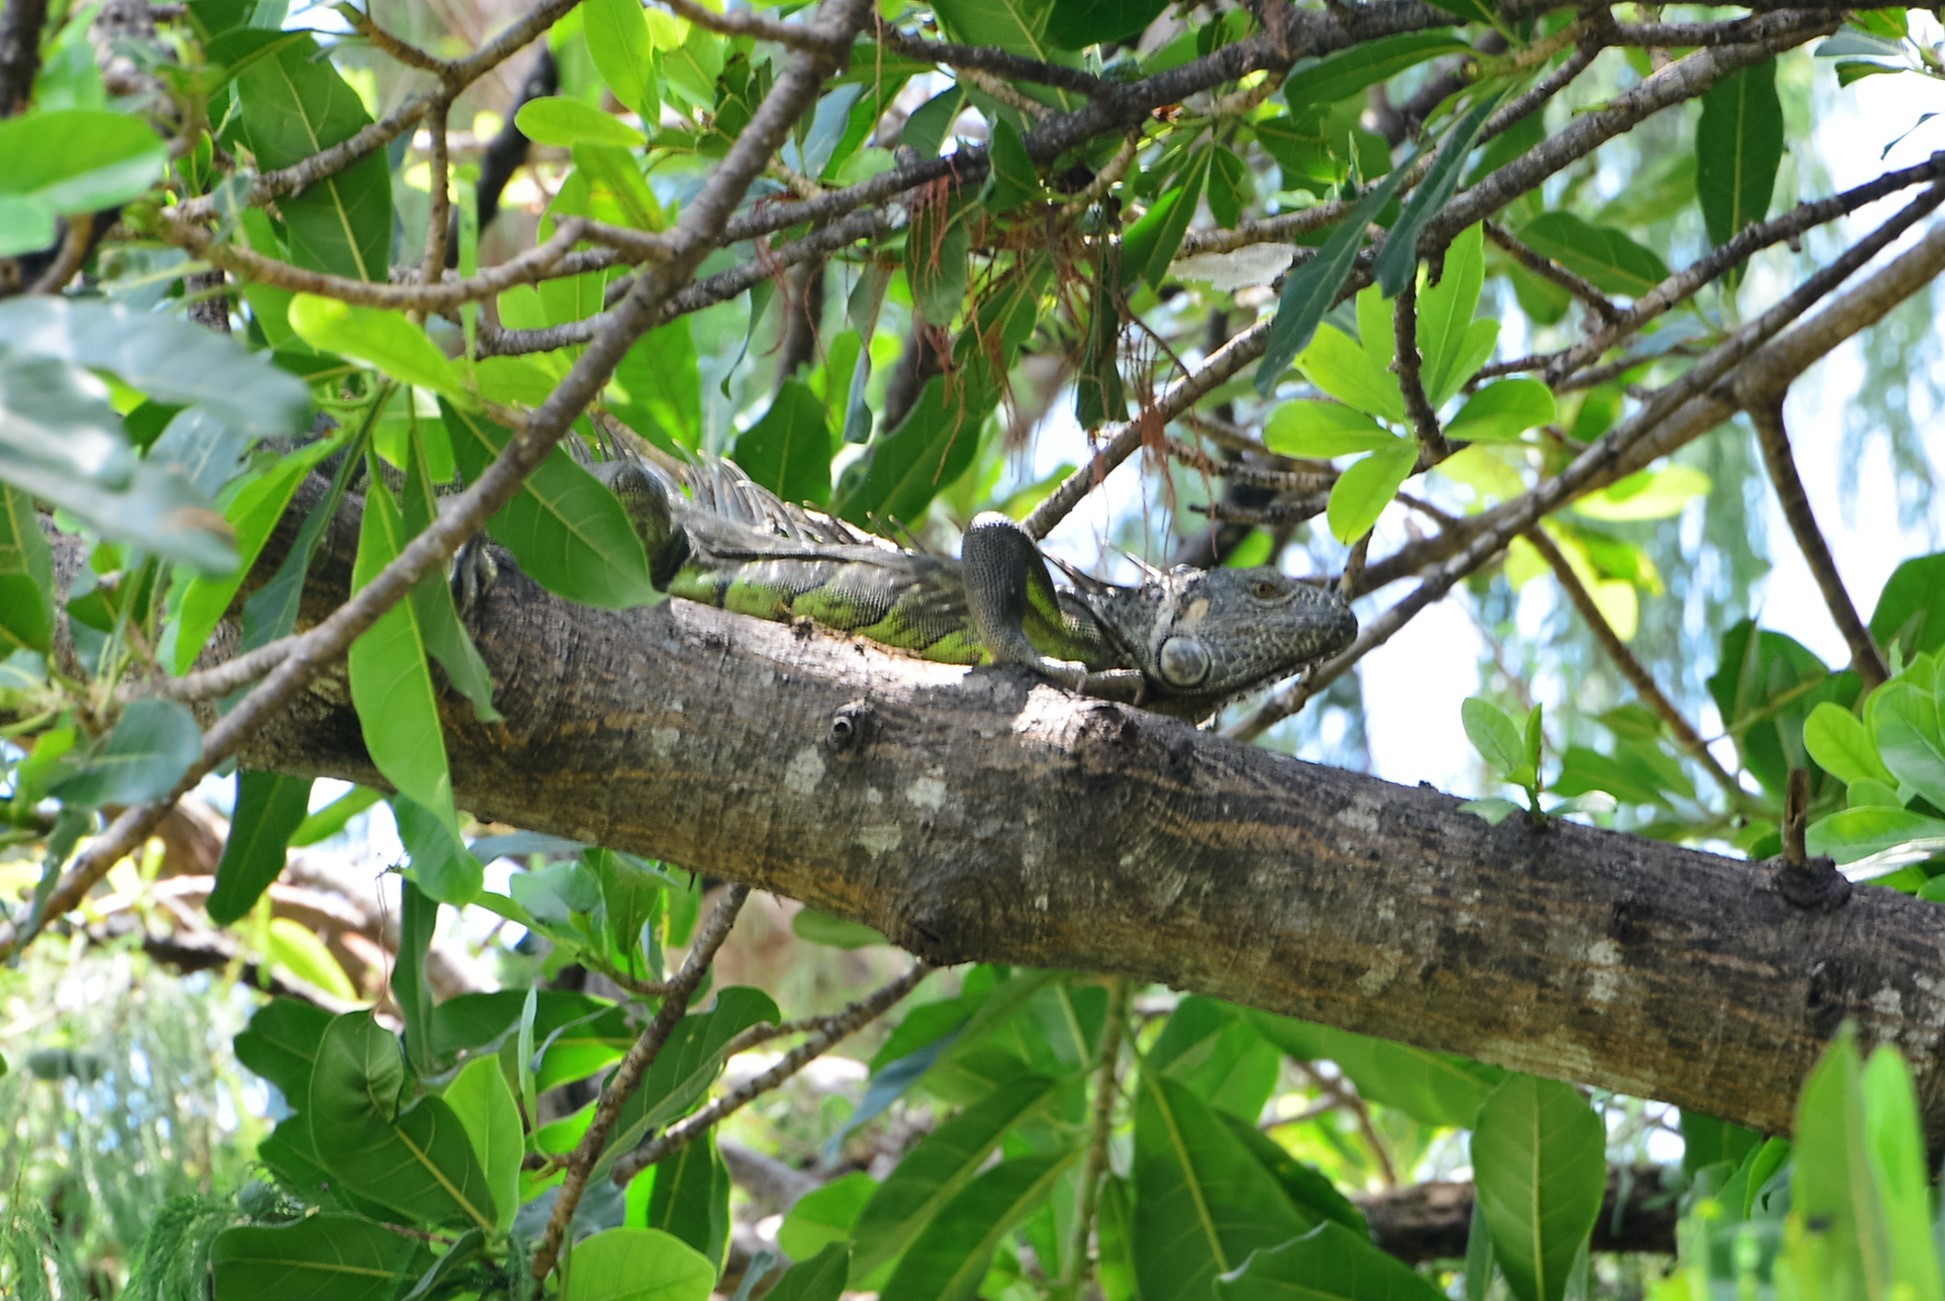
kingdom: Animalia
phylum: Chordata
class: Squamata
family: Iguanidae
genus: Iguana
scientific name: Iguana iguana
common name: Green iguana
